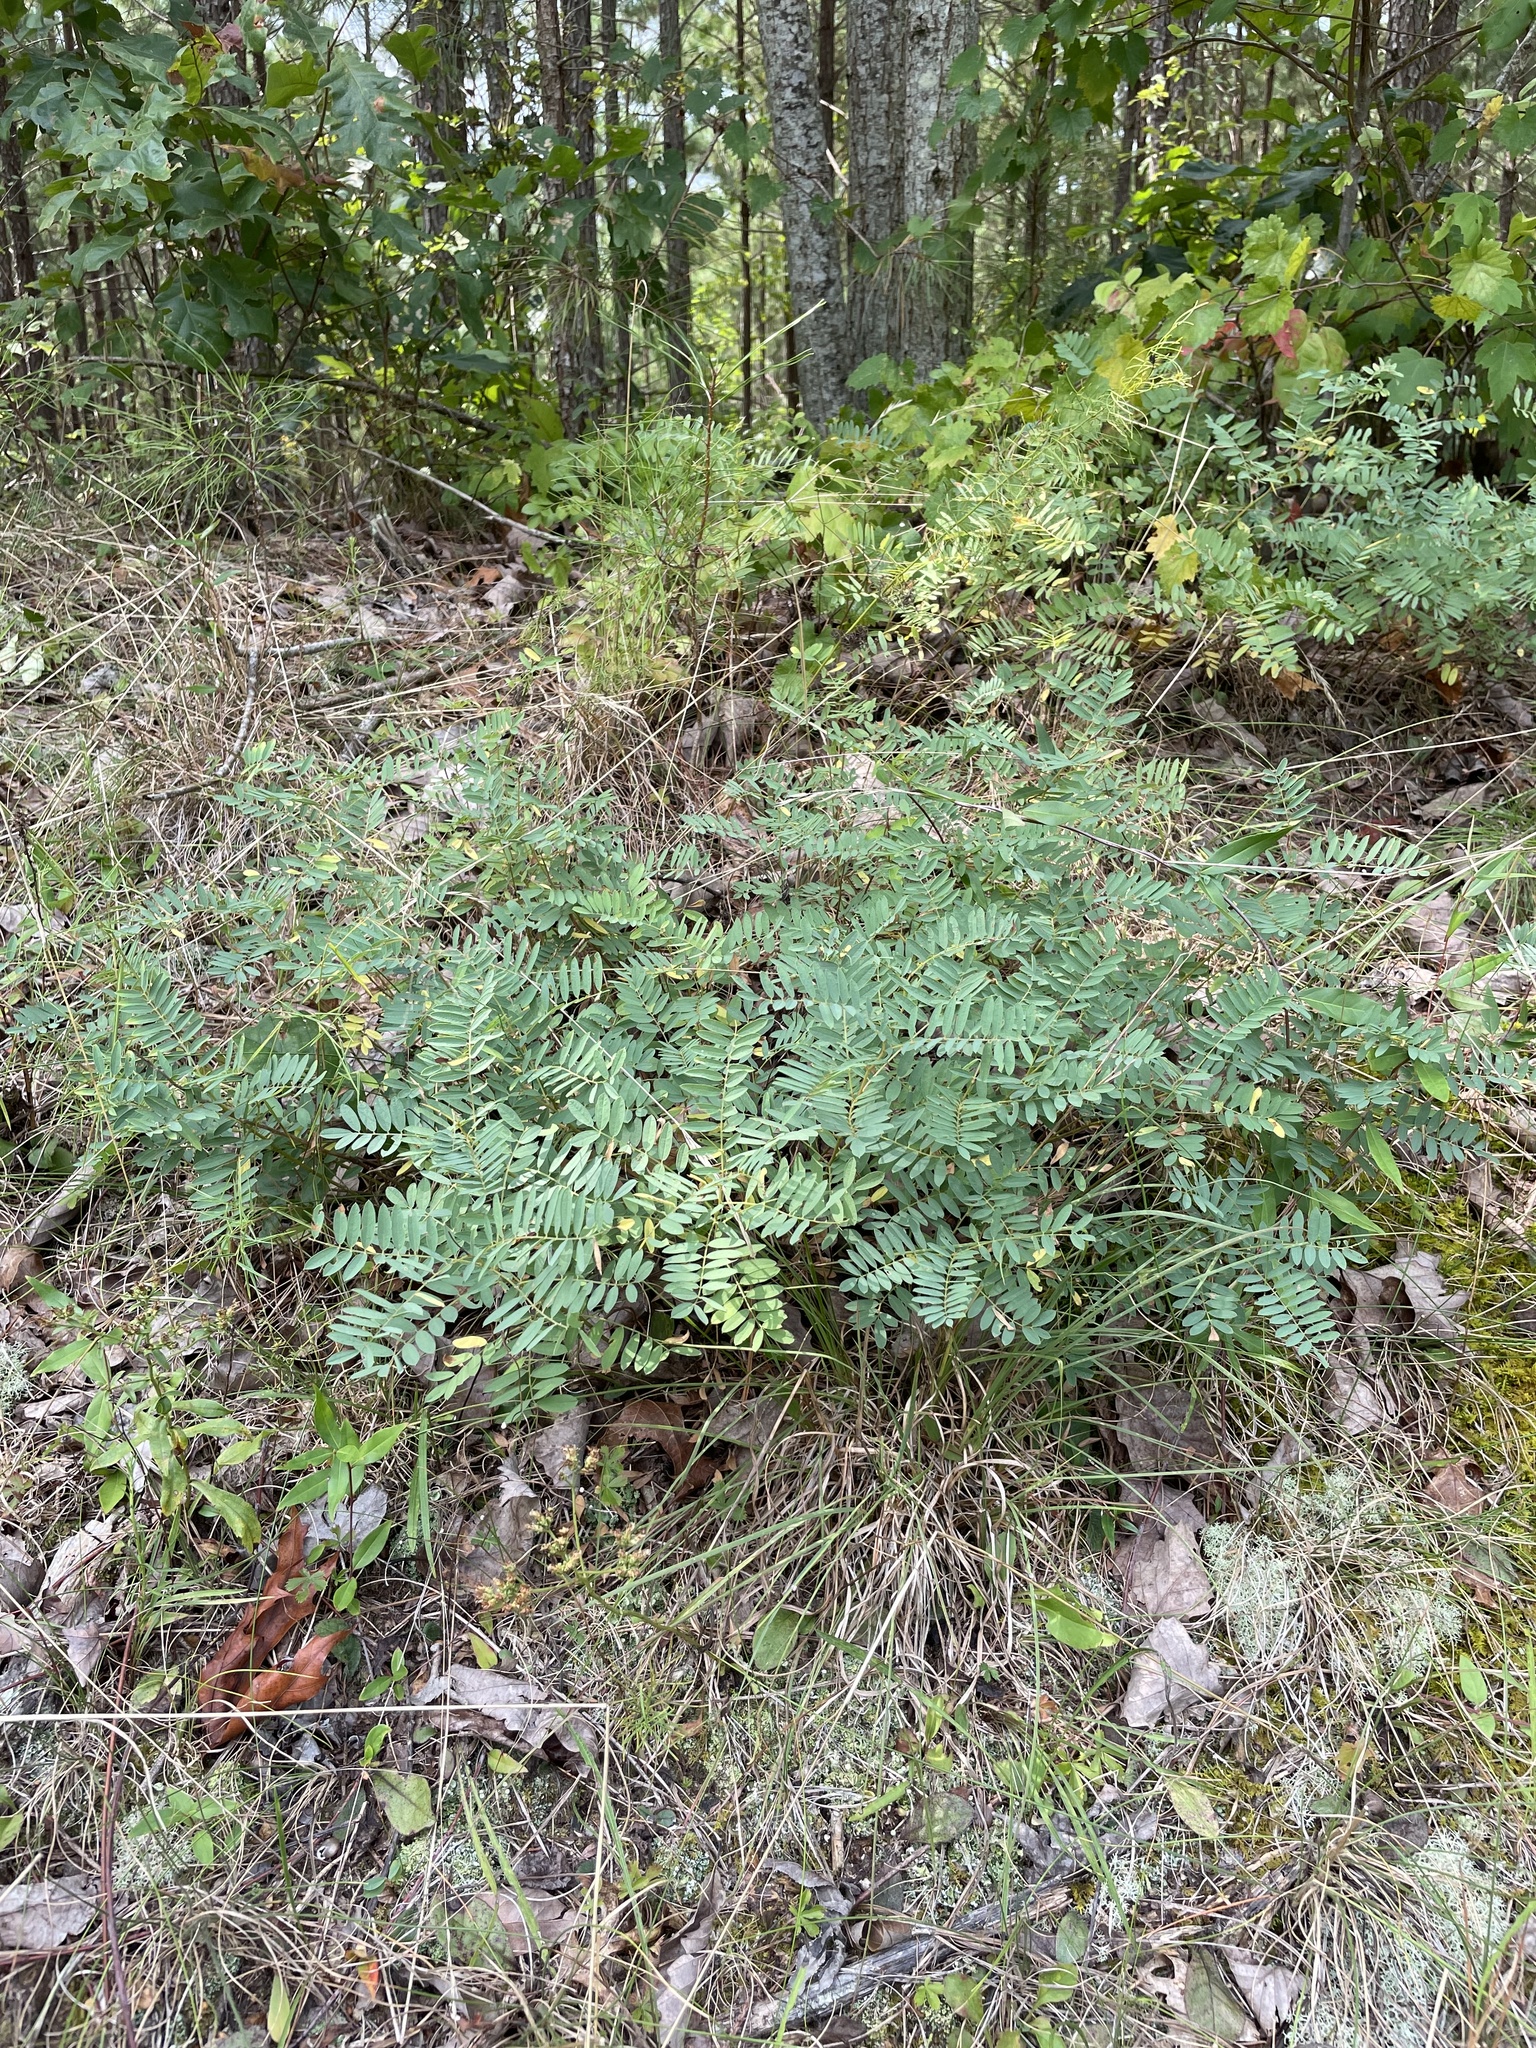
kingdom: Plantae
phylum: Tracheophyta
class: Magnoliopsida
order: Fabales
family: Fabaceae
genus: Tephrosia
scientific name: Tephrosia virginiana
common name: Rabbit-pea
